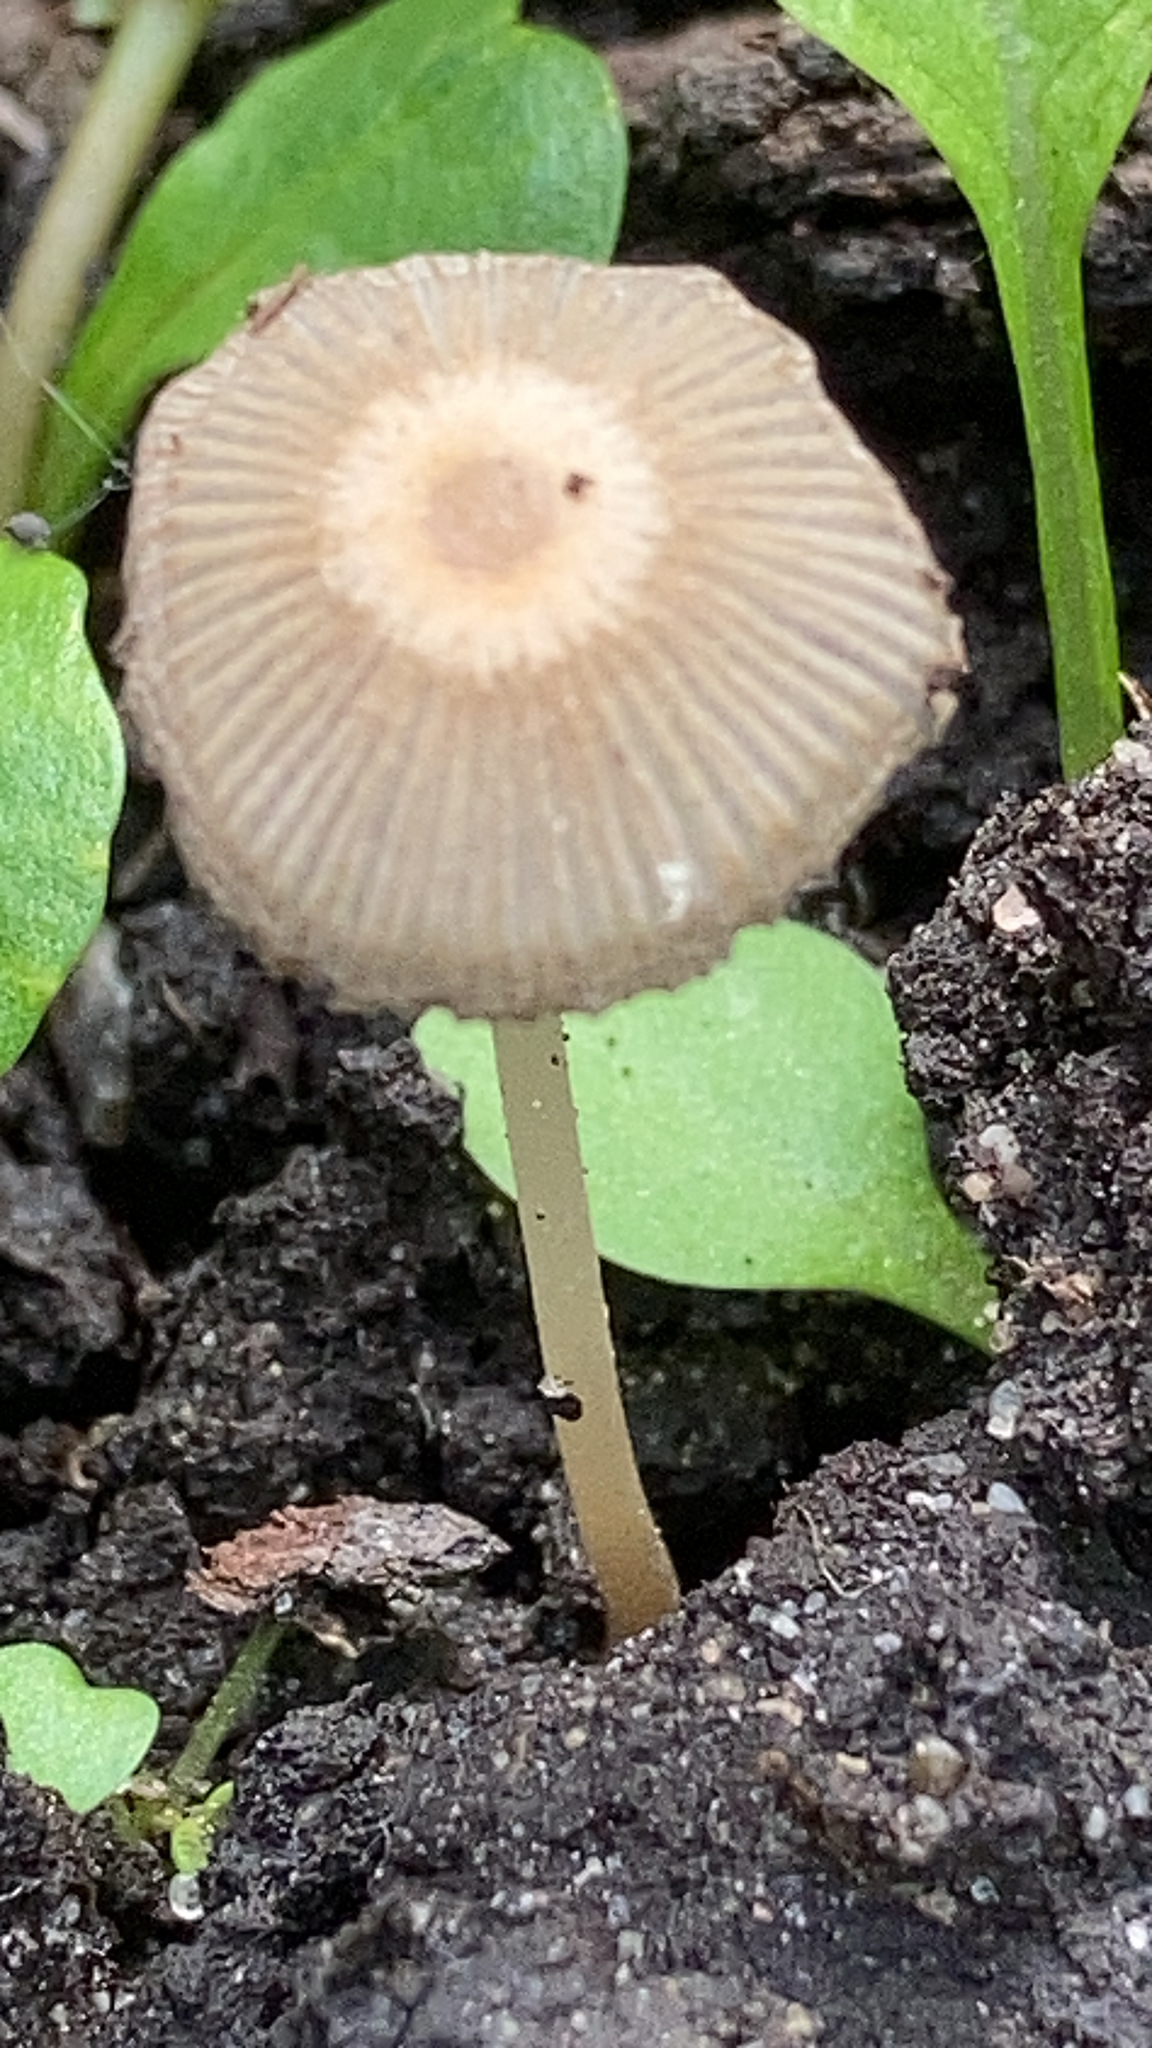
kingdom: Fungi
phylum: Basidiomycota
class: Agaricomycetes
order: Agaricales
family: Psathyrellaceae
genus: Parasola
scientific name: Parasola
